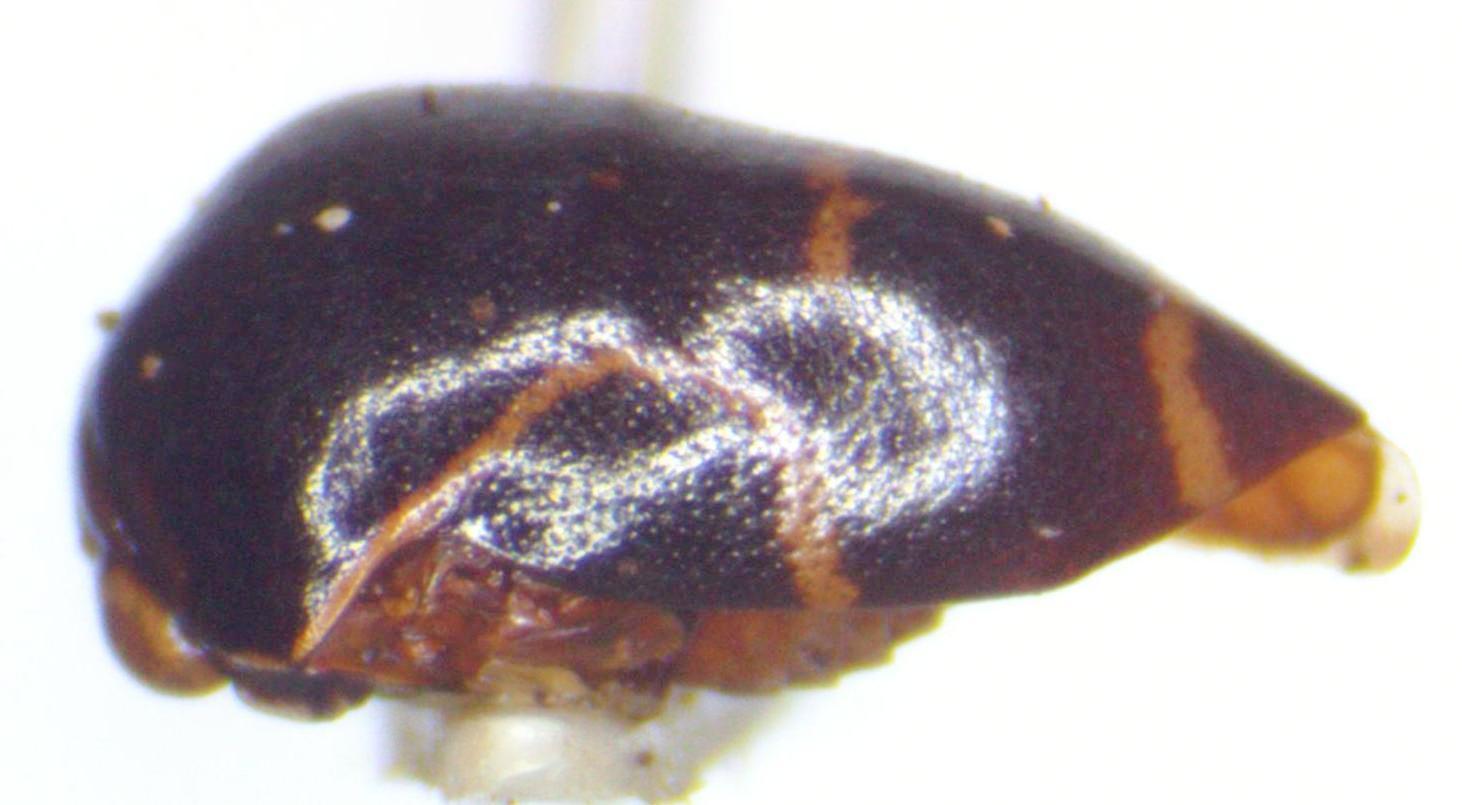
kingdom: Animalia
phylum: Arthropoda
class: Insecta
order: Hemiptera
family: Membracidae
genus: Horiola
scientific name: Horiola picta
